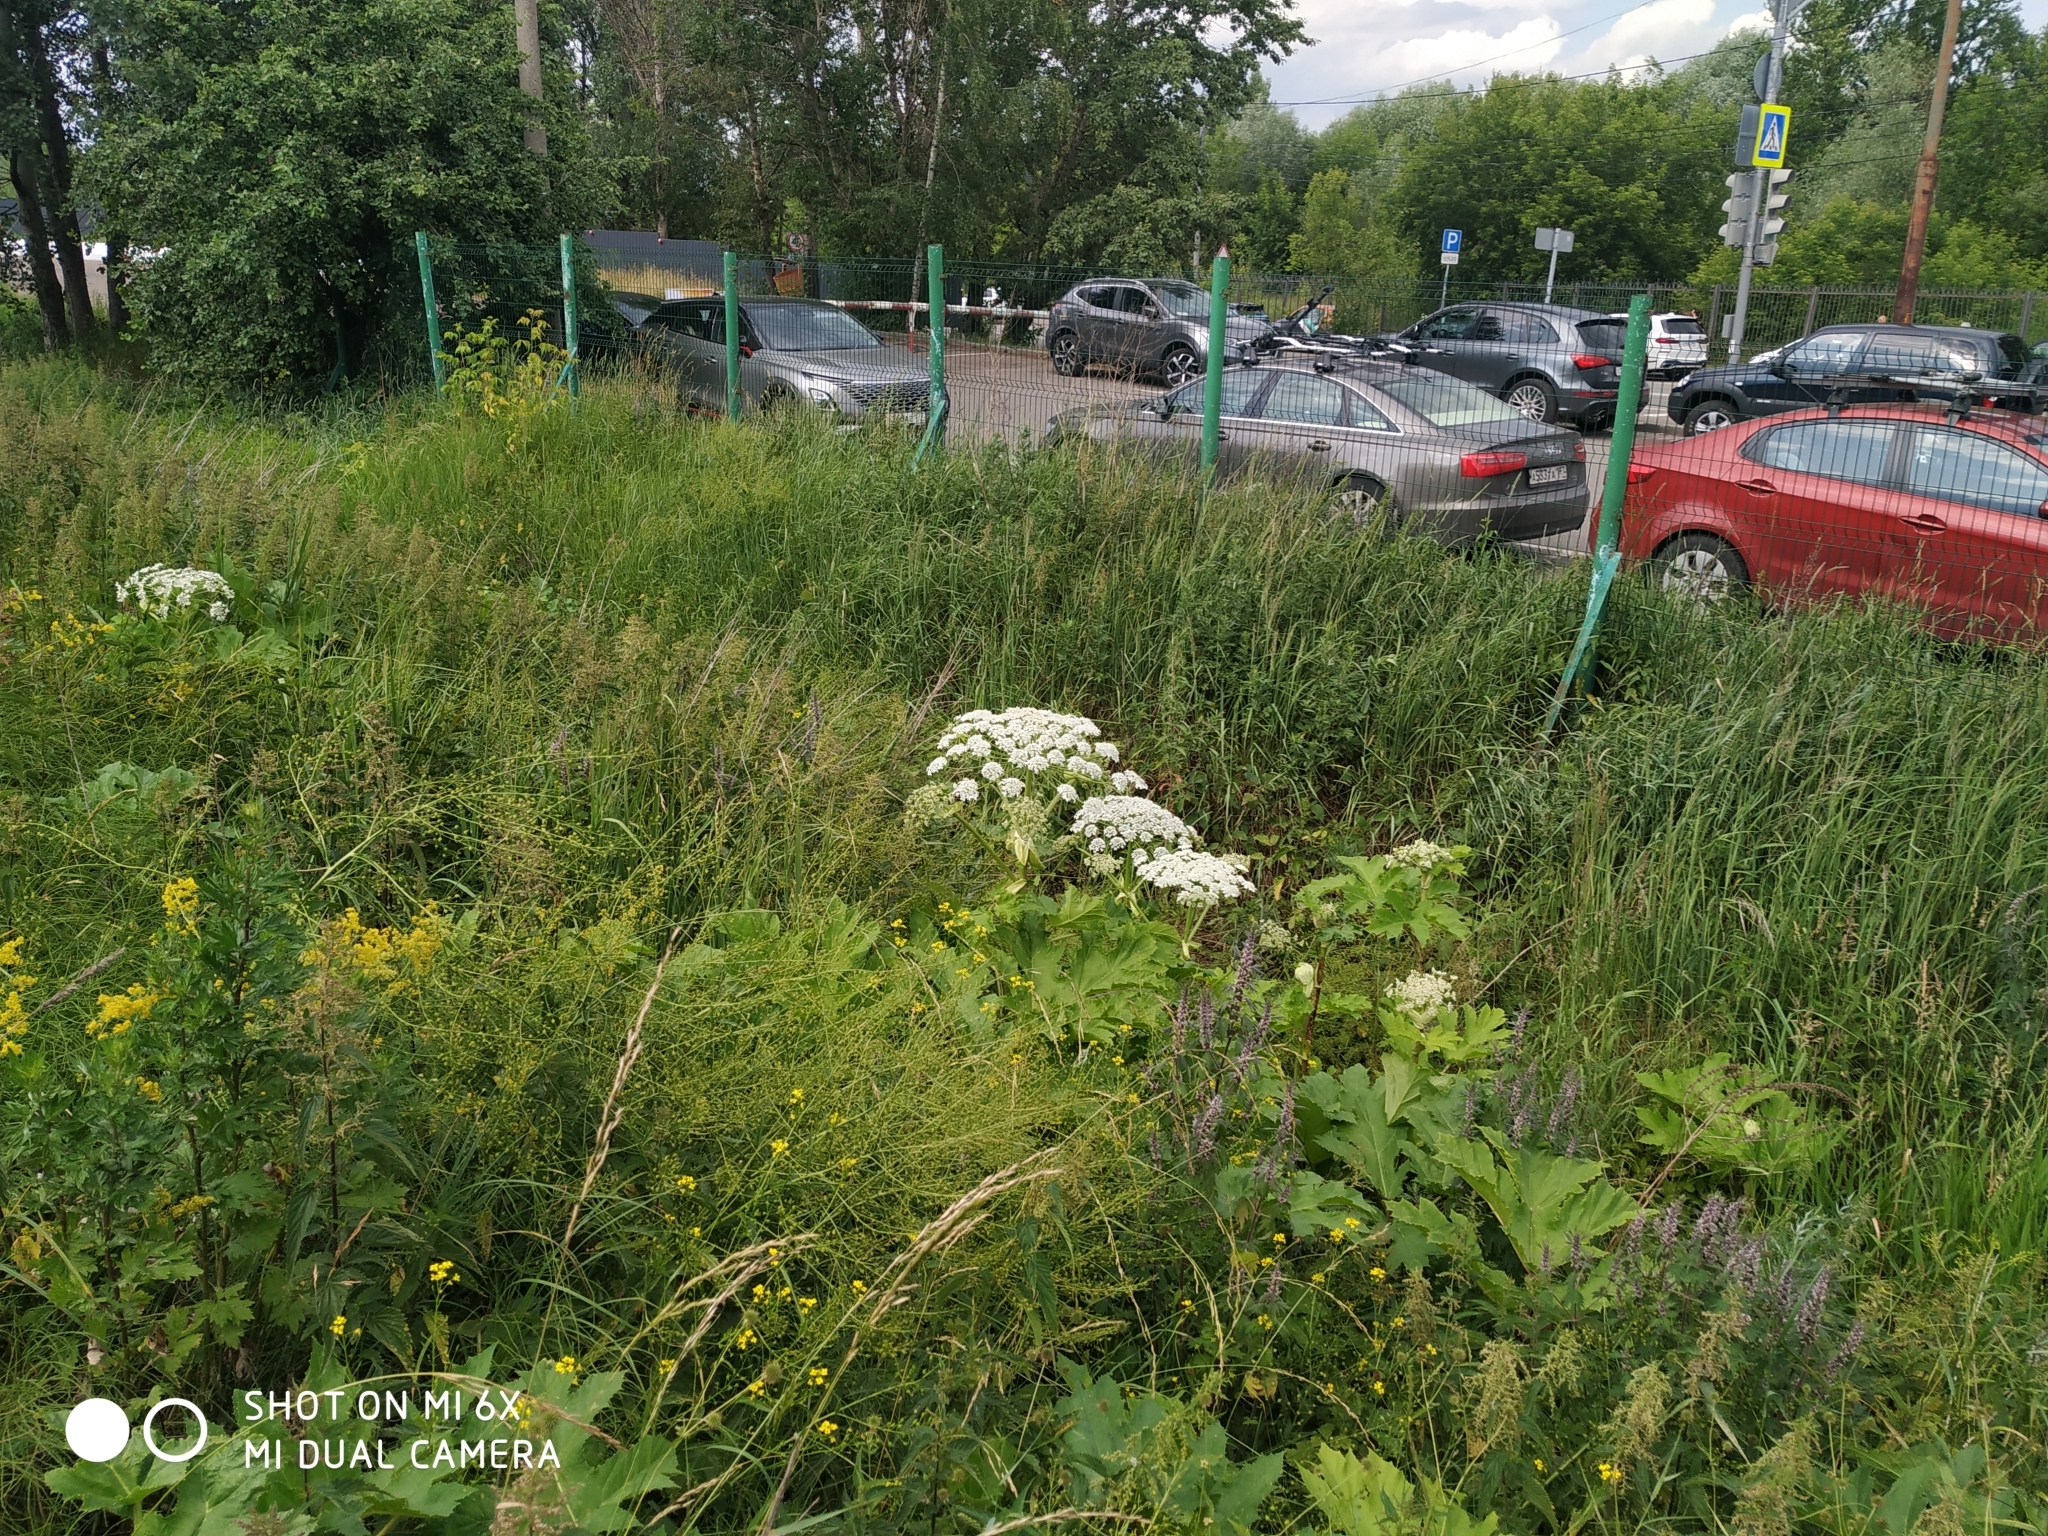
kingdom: Plantae
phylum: Tracheophyta
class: Magnoliopsida
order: Apiales
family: Apiaceae
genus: Heracleum
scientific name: Heracleum sosnowskyi
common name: Sosnowsky's hogweed
